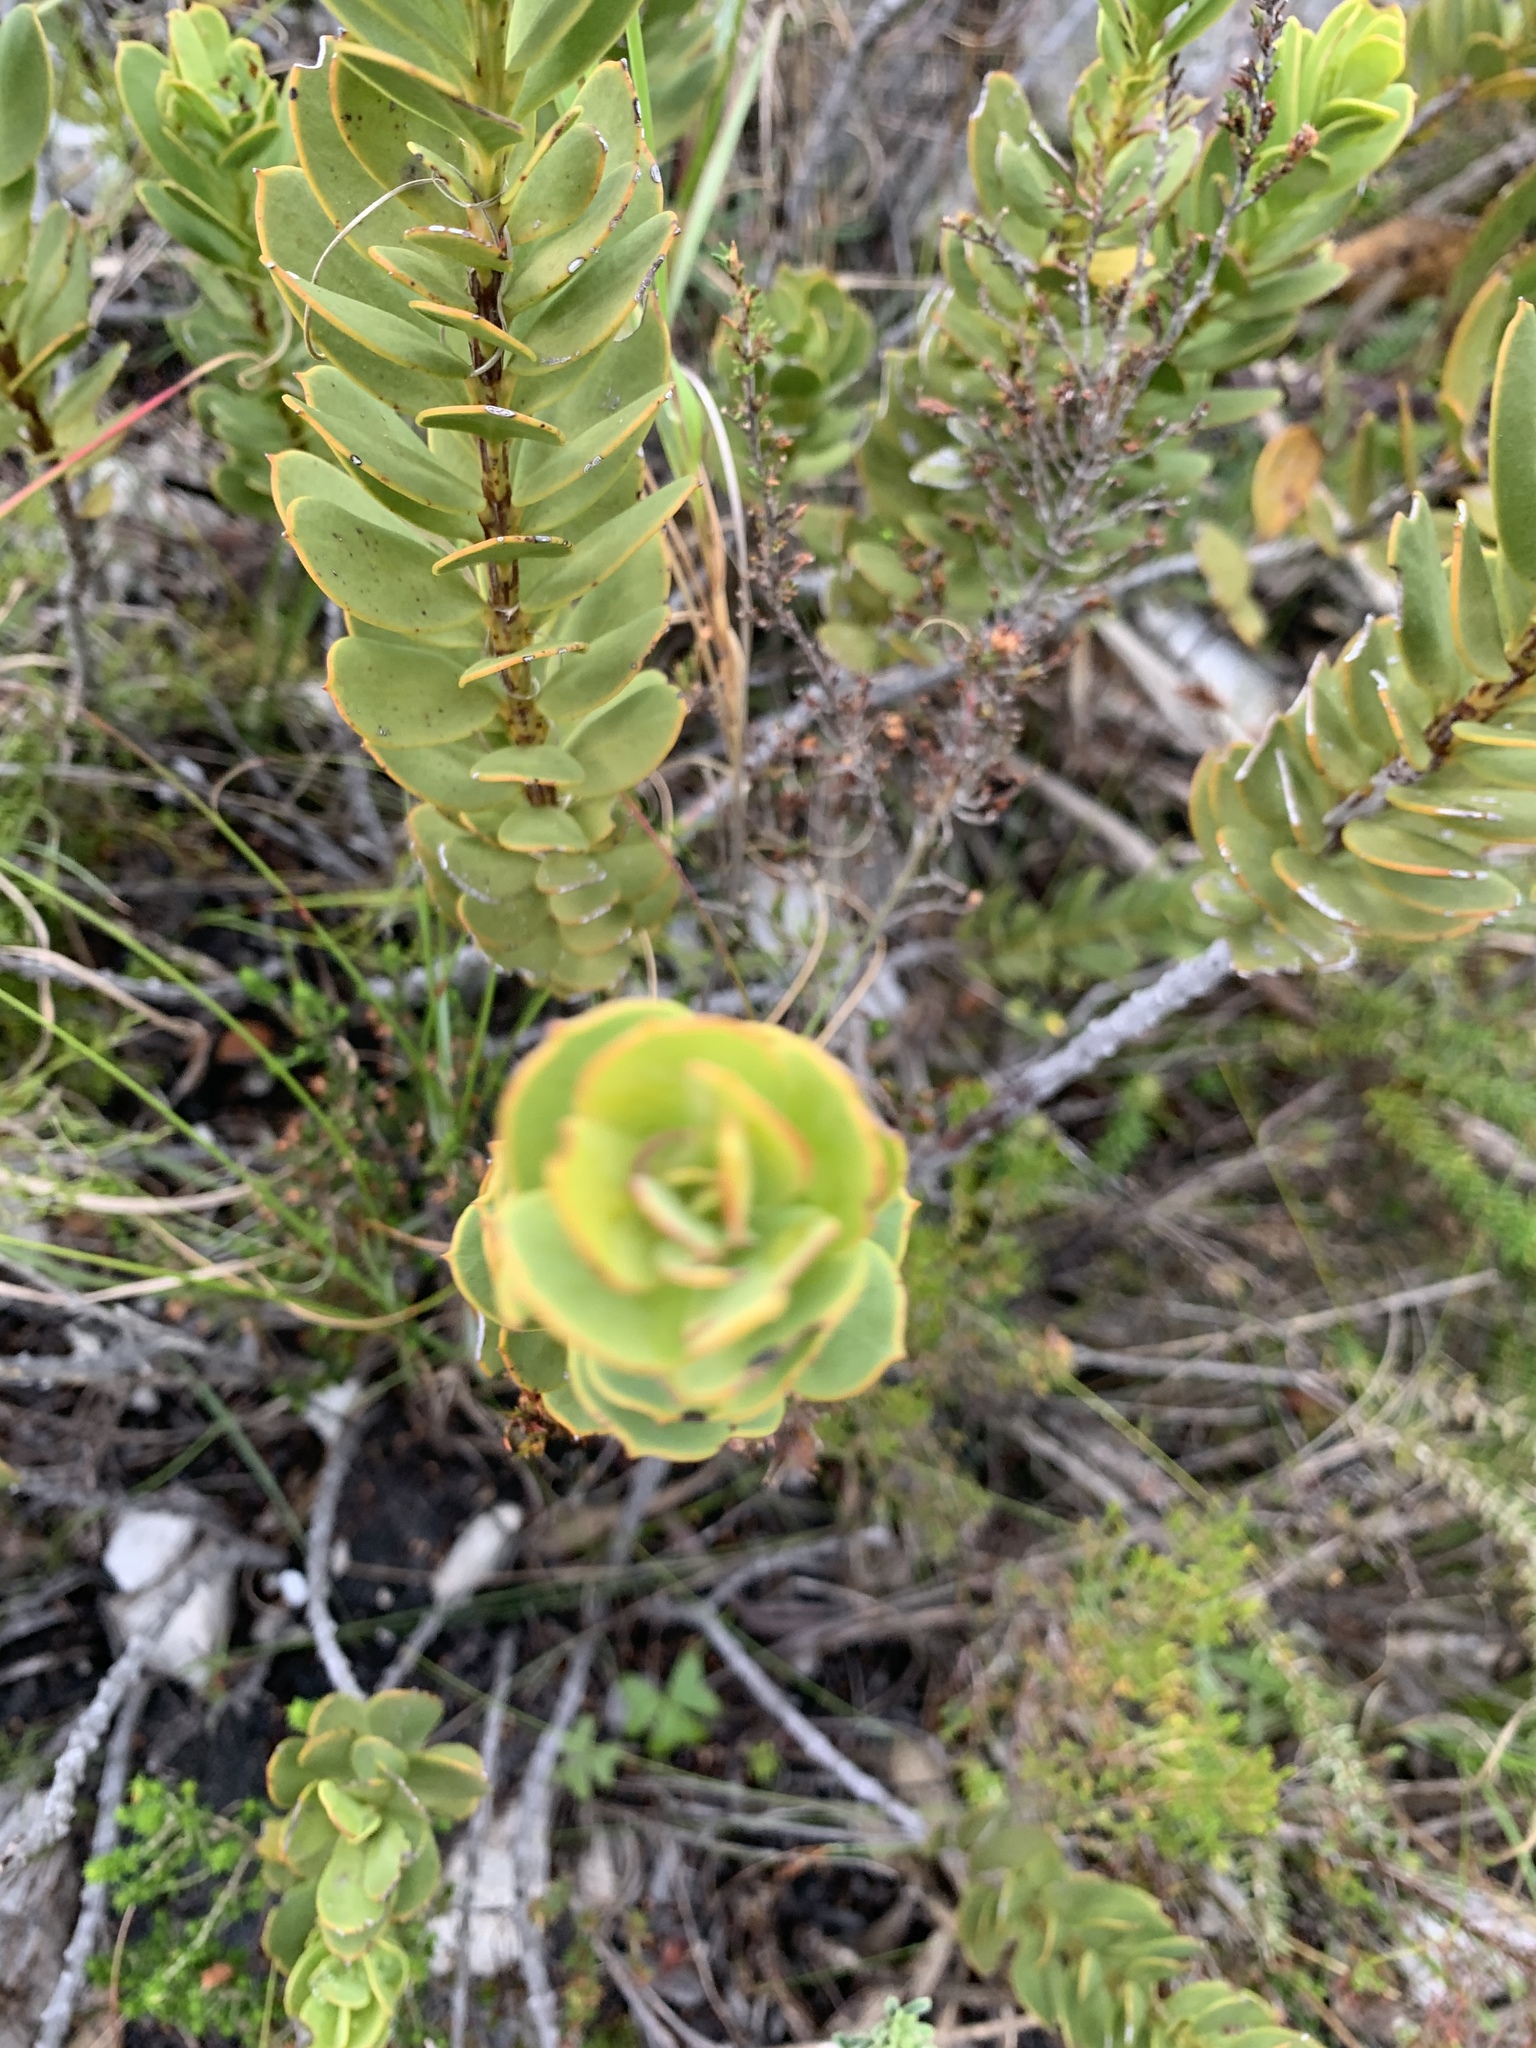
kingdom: Plantae
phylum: Tracheophyta
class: Magnoliopsida
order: Santalales
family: Santalaceae
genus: Osyris
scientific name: Osyris compressa
